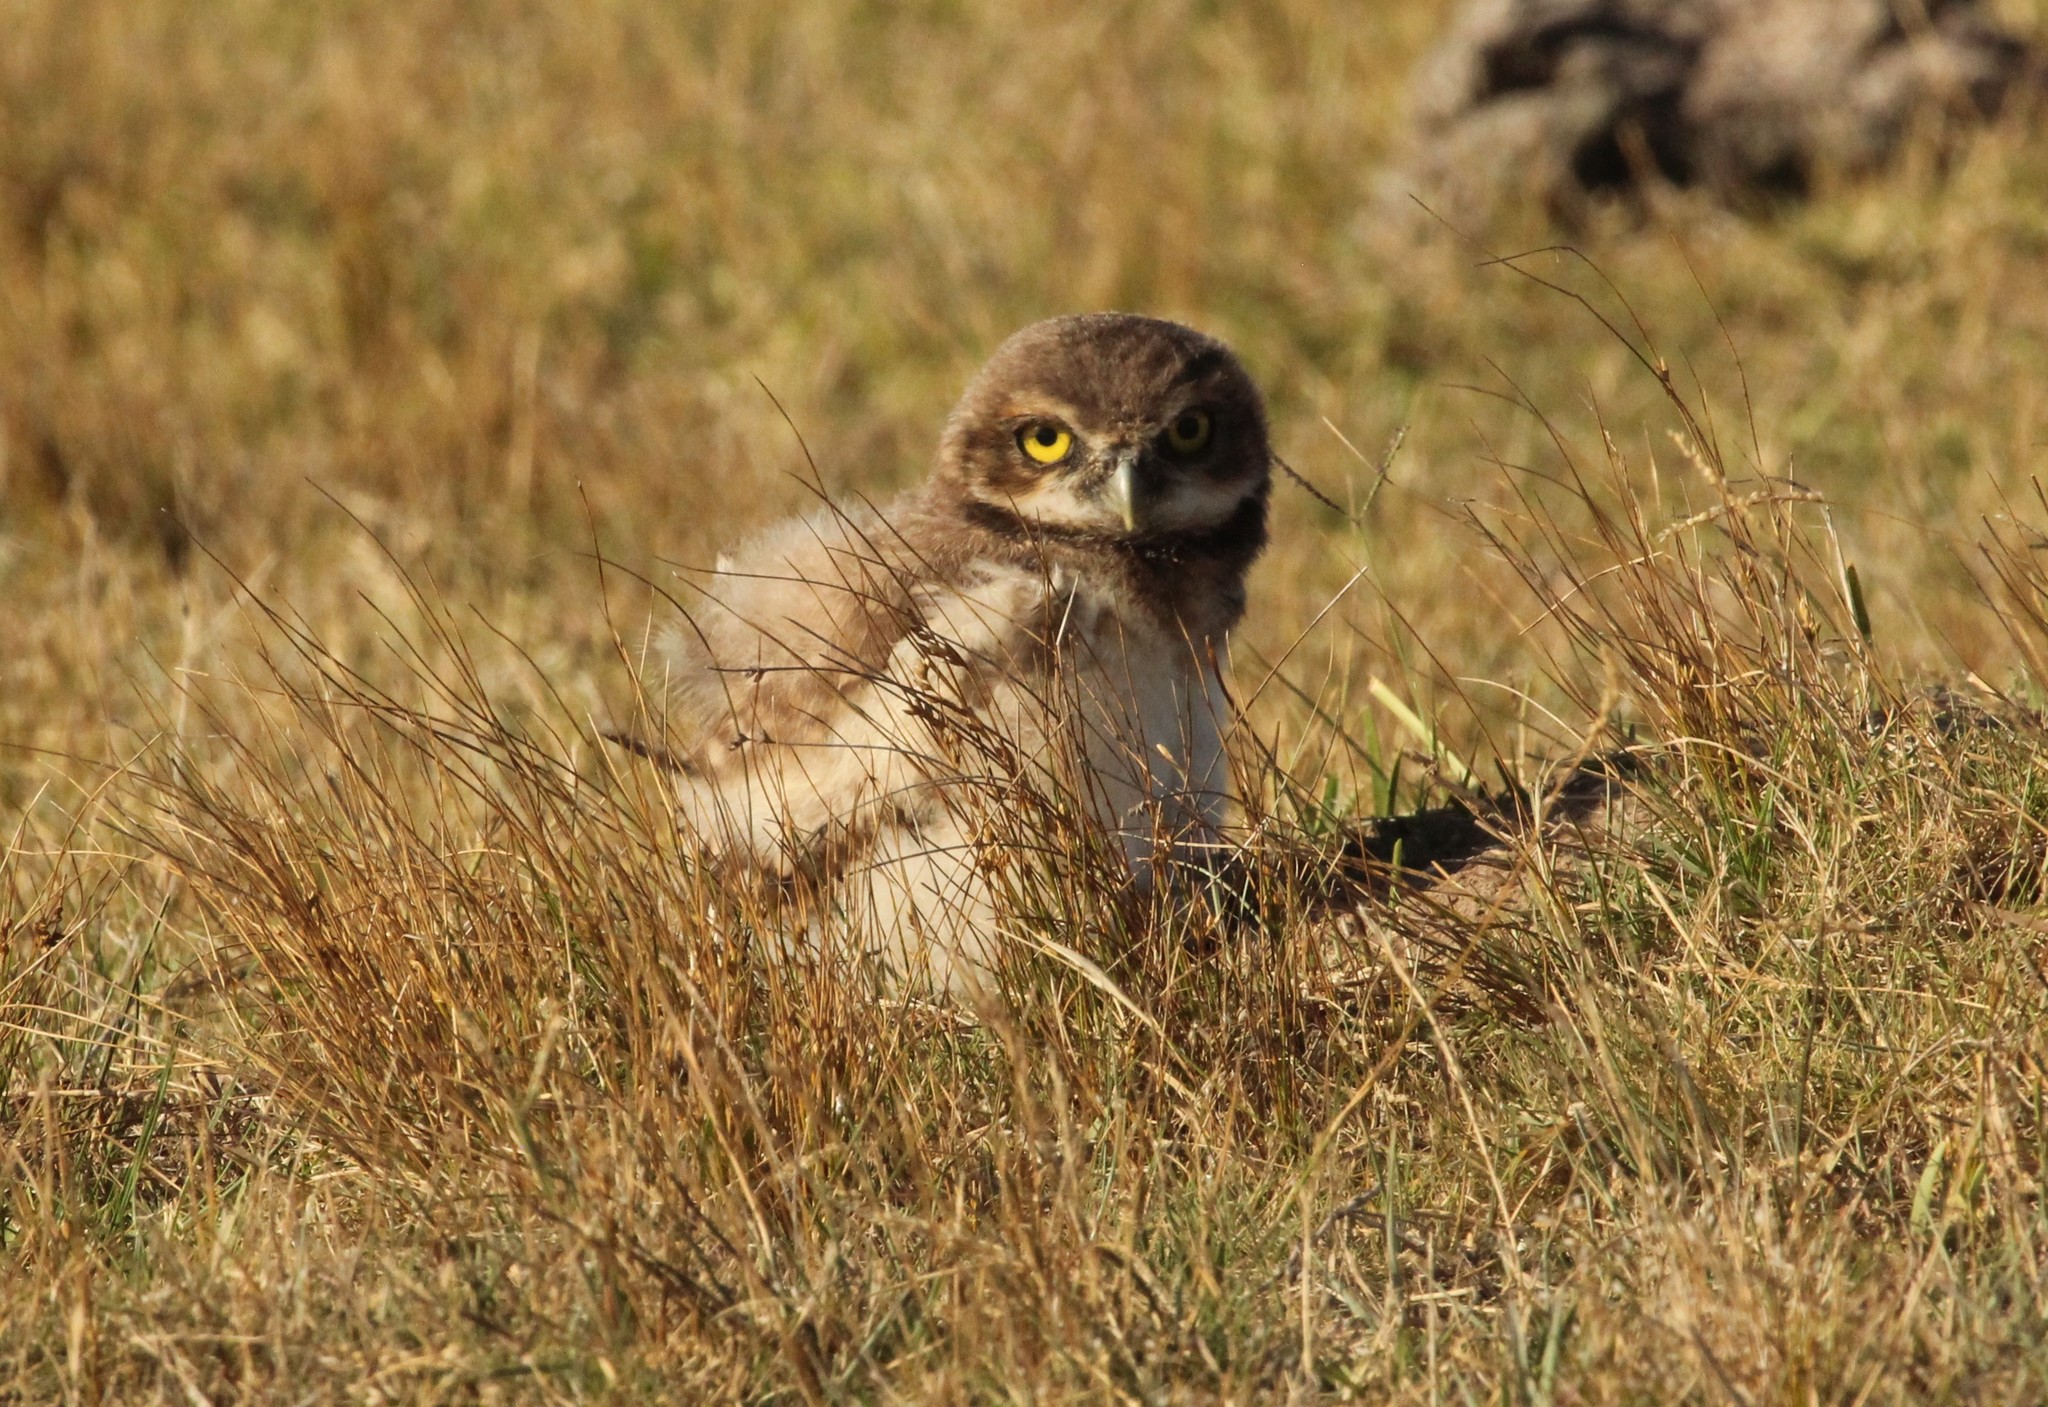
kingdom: Animalia
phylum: Chordata
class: Aves
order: Strigiformes
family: Strigidae
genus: Athene
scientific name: Athene cunicularia
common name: Burrowing owl
